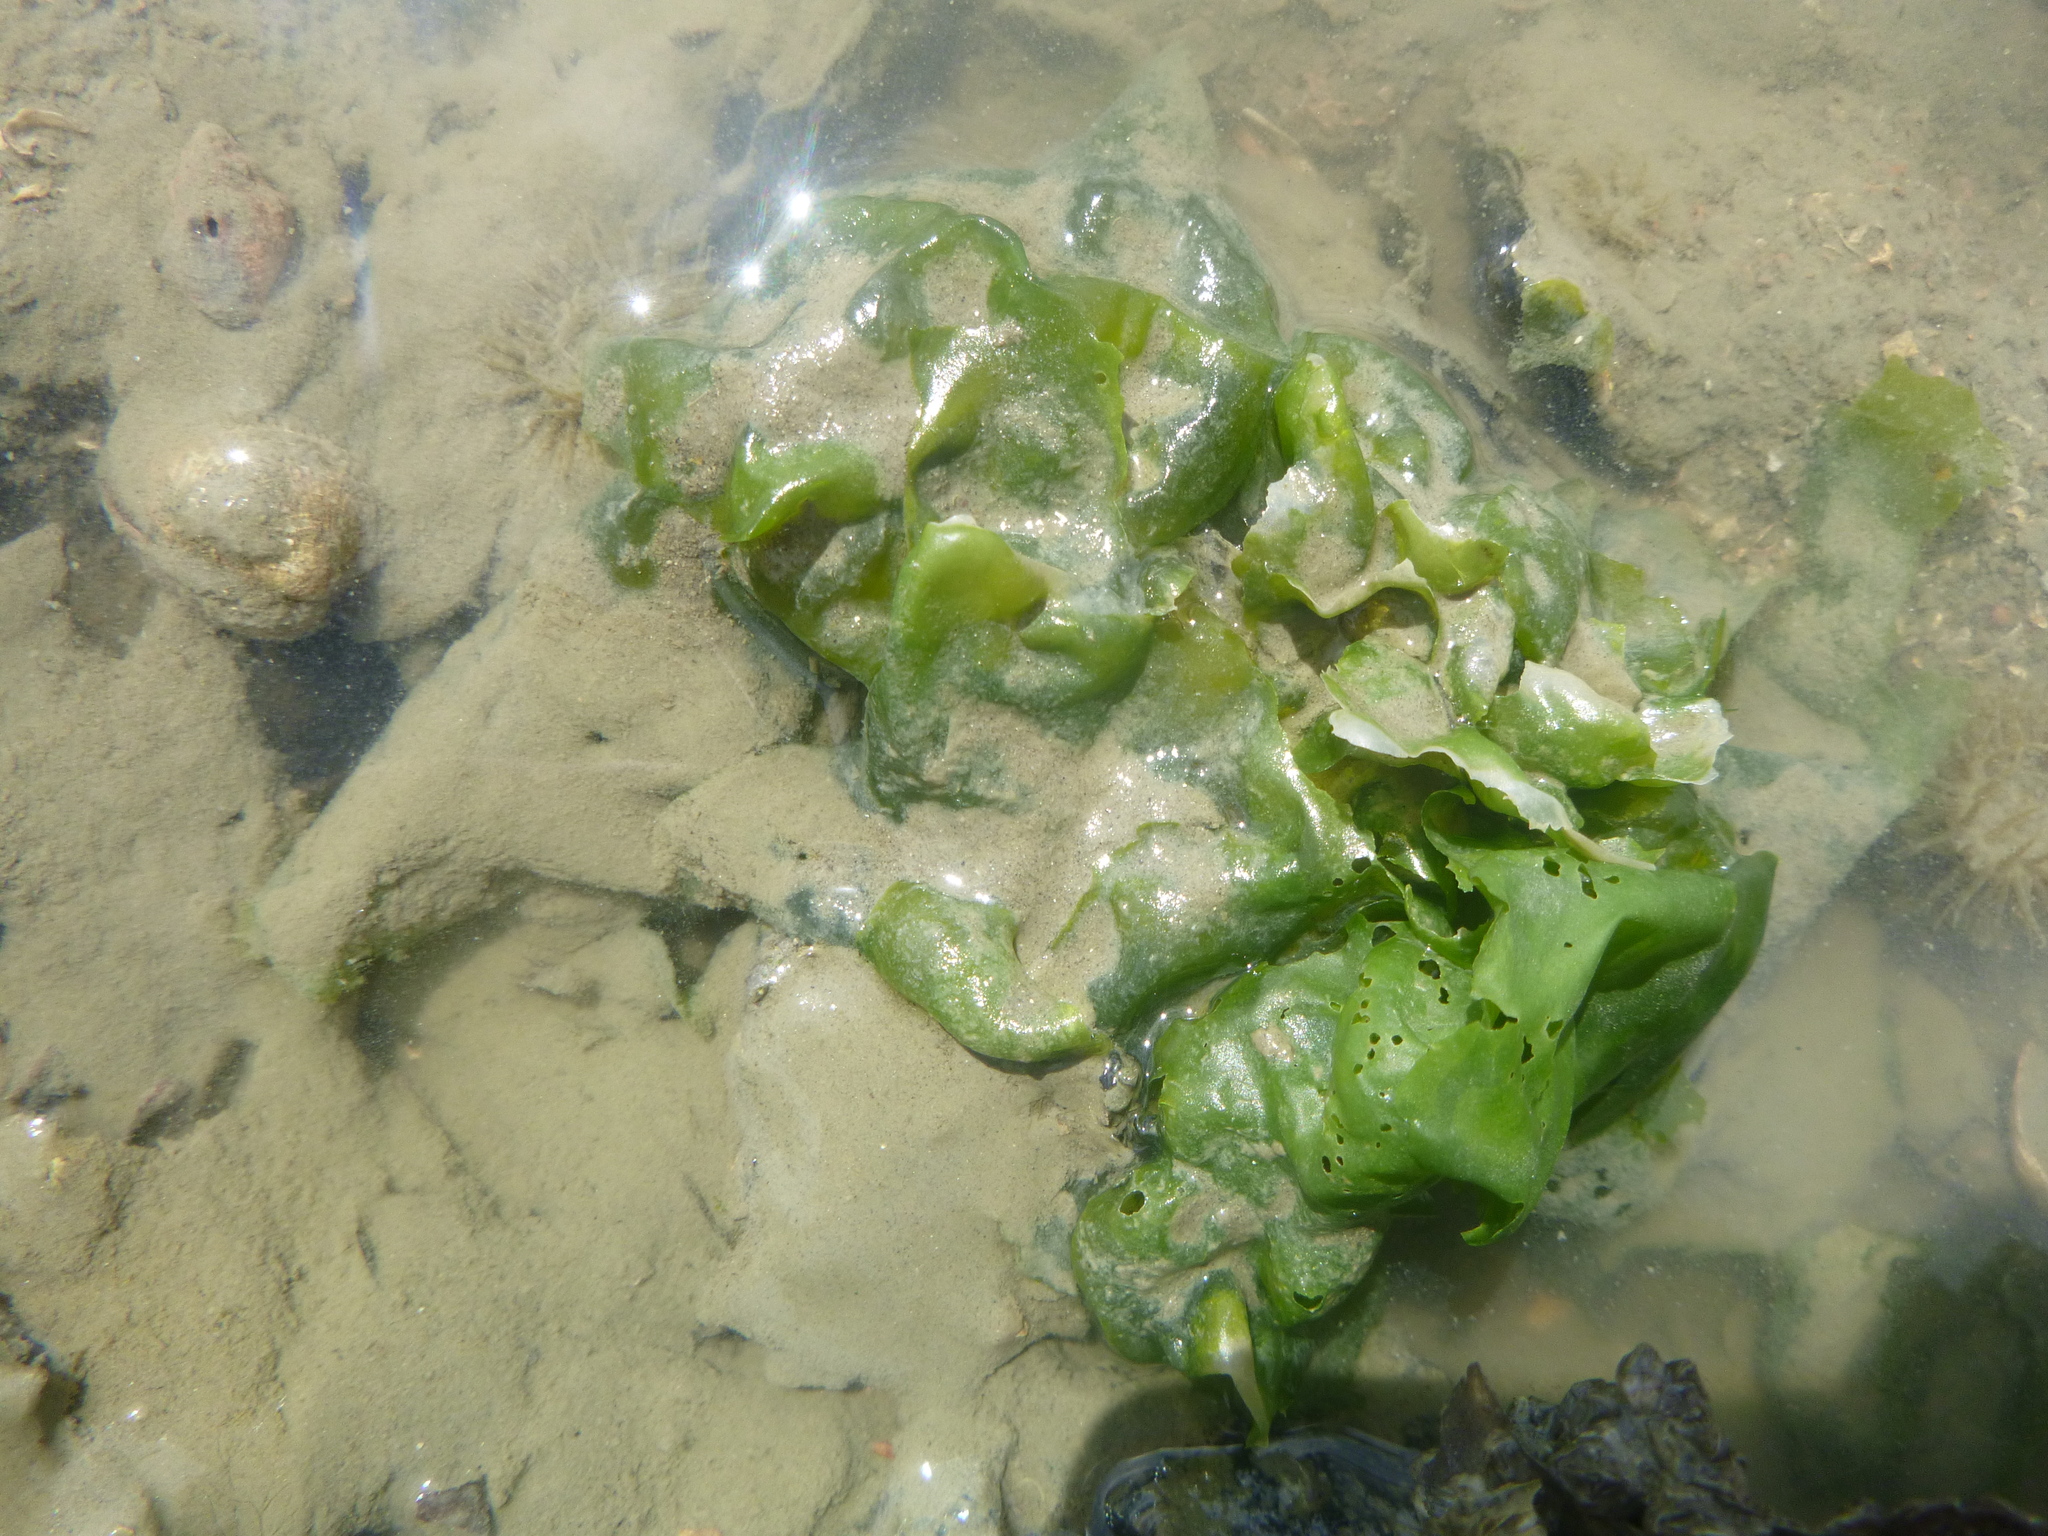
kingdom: Plantae
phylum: Chlorophyta
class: Ulvophyceae
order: Ulvales
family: Ulvaceae
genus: Ulva
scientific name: Ulva
